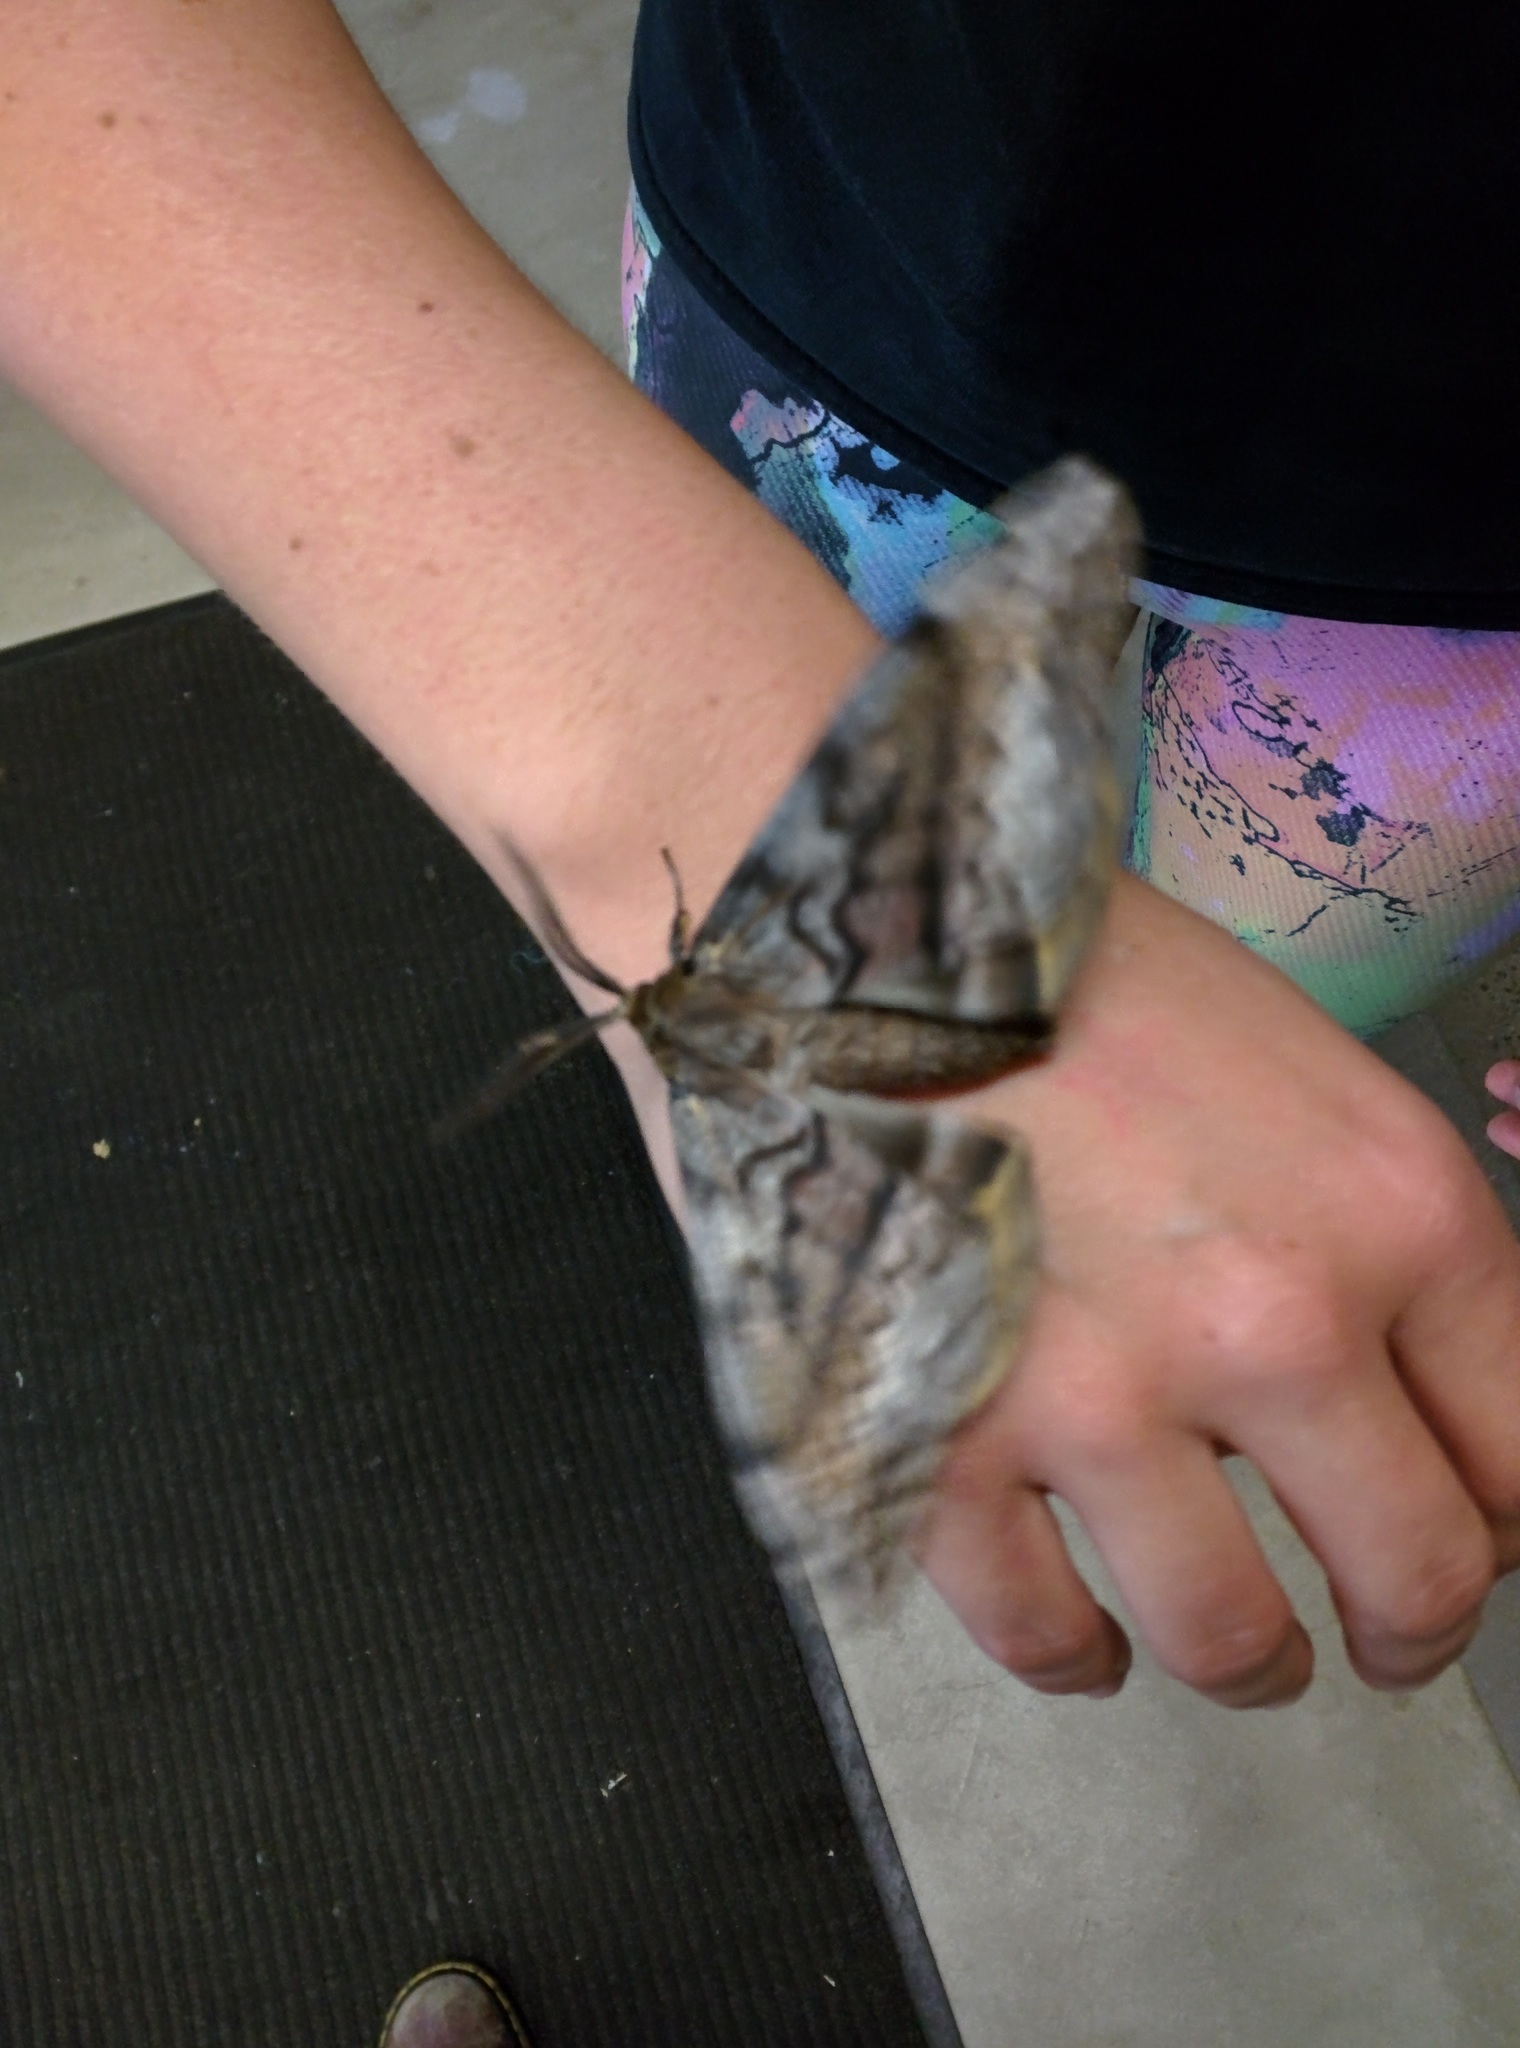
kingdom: Animalia
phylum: Arthropoda
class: Insecta
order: Lepidoptera
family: Anthelidae
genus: Chelepteryx
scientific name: Chelepteryx collesi
